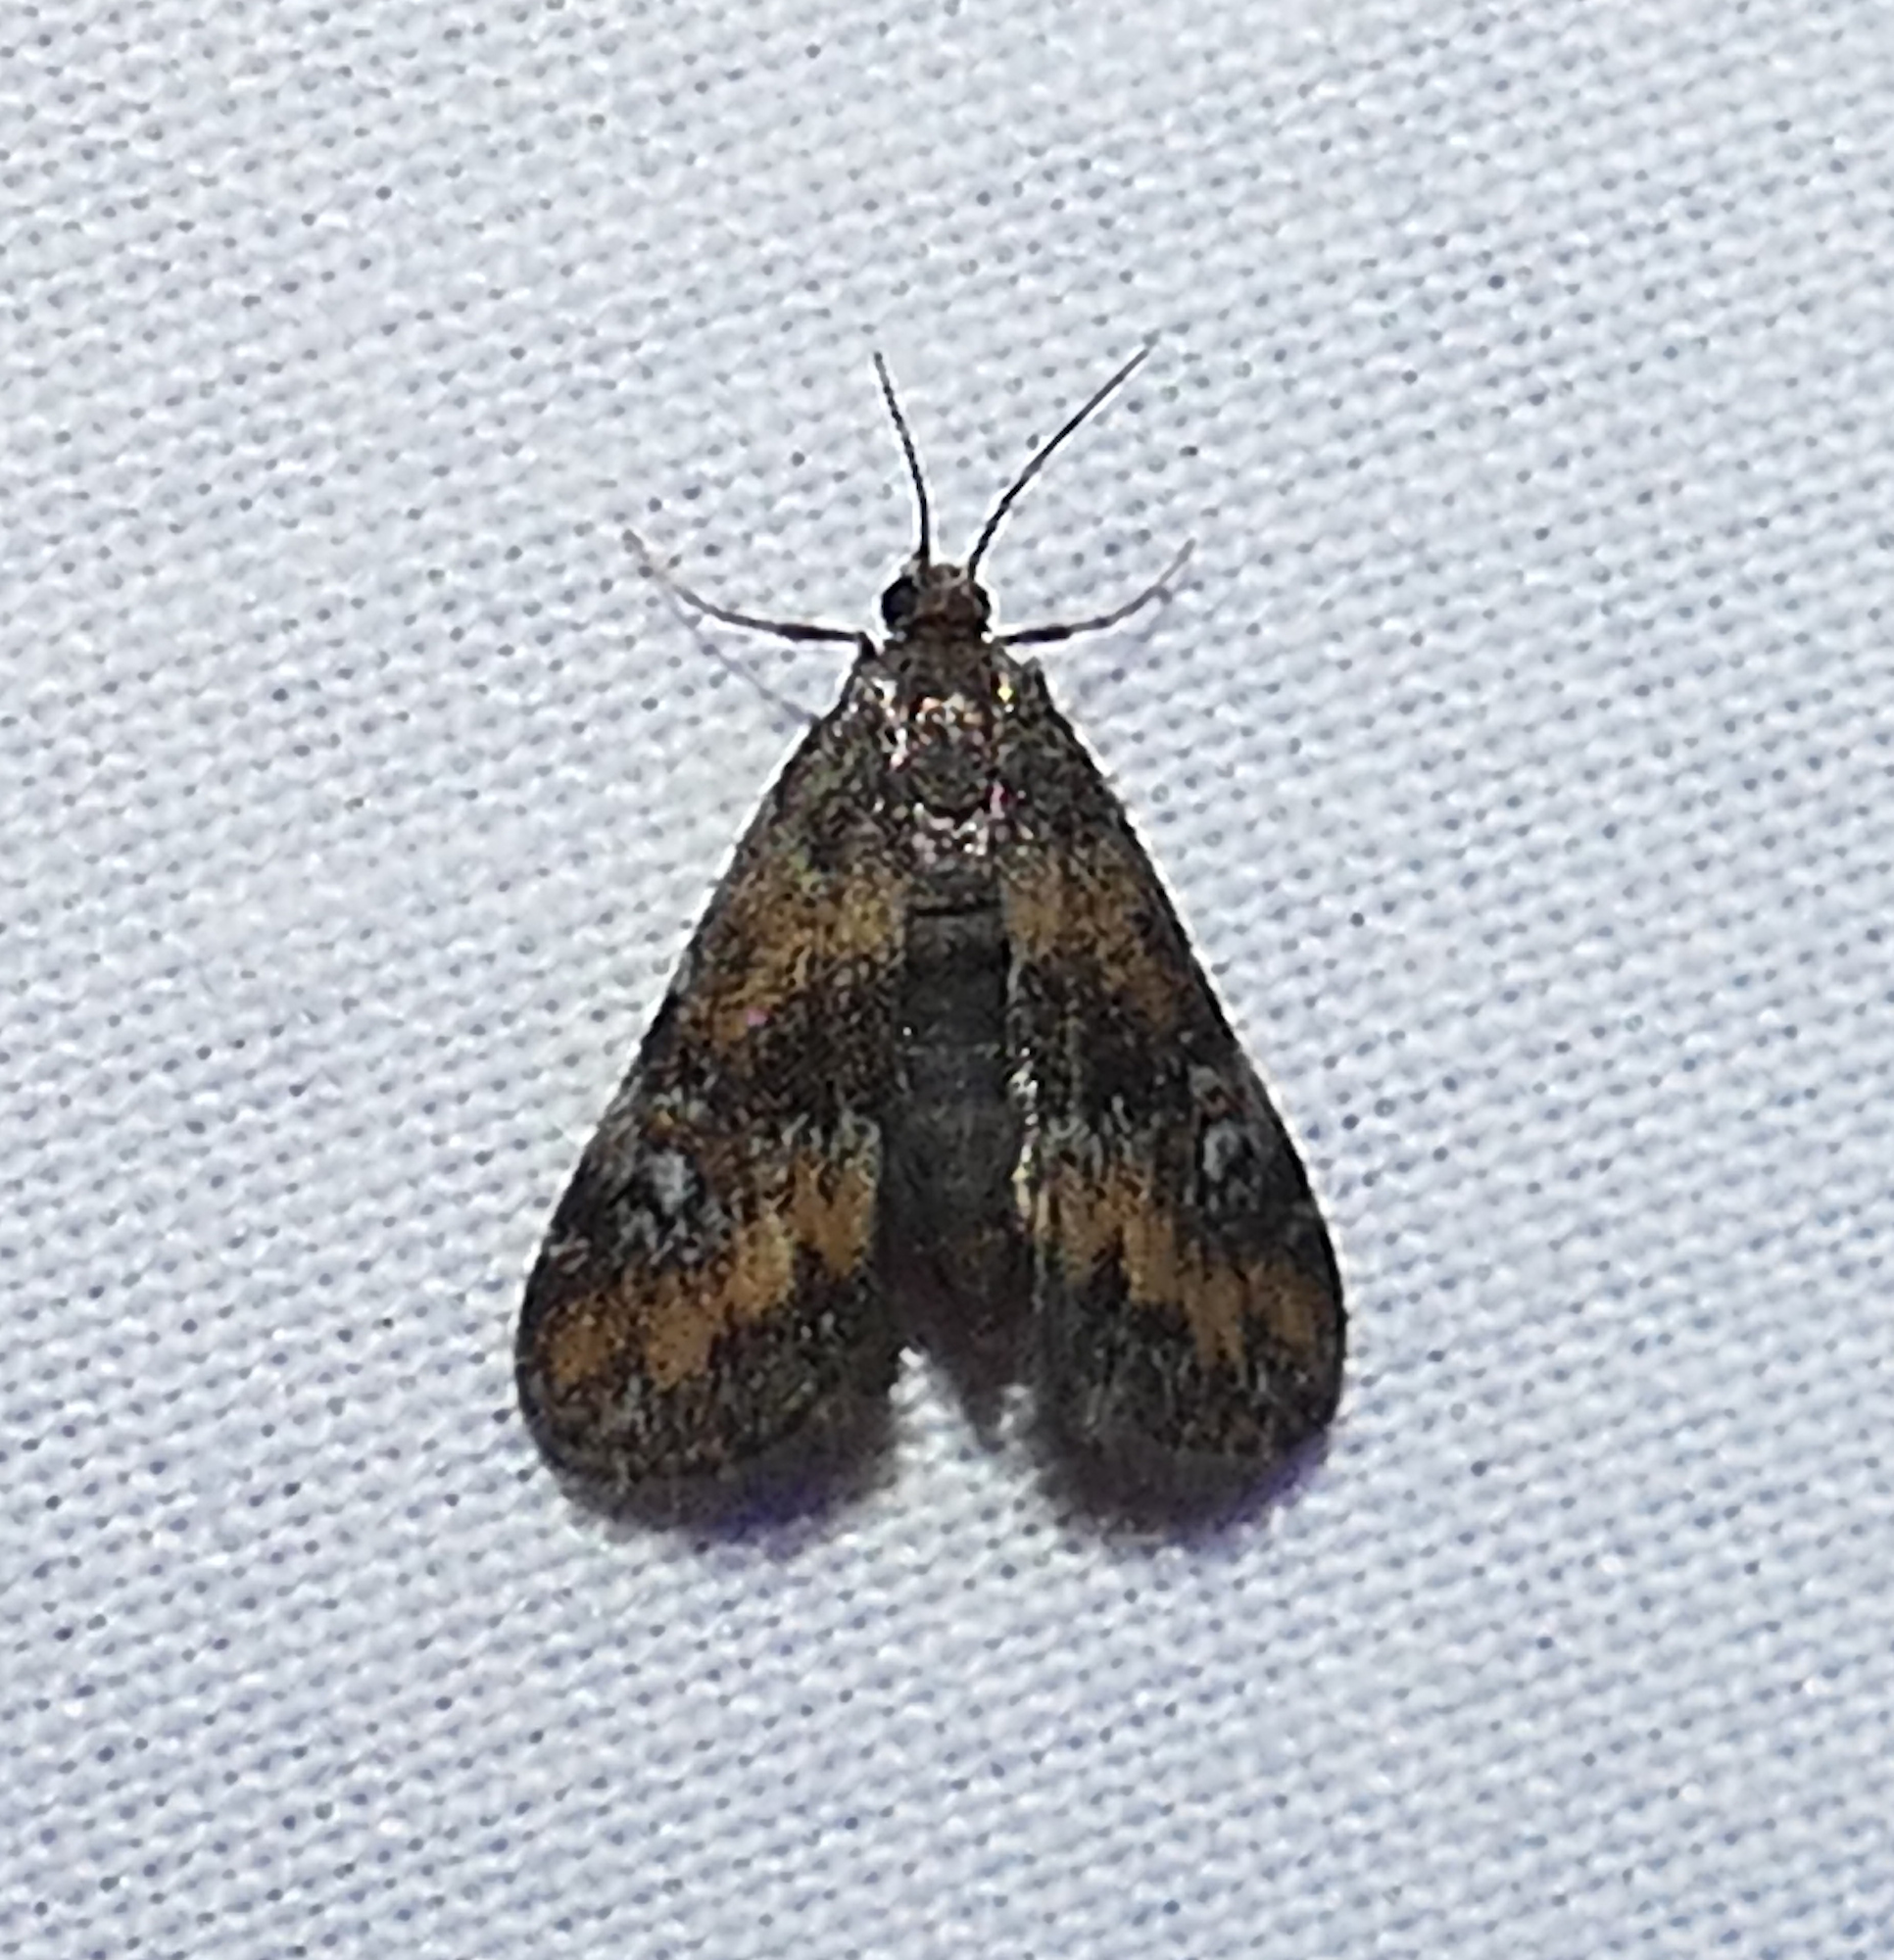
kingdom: Animalia
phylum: Arthropoda
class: Insecta
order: Lepidoptera
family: Crambidae
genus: Elophila
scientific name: Elophila obliteralis
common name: Waterlily leafcutter moth
